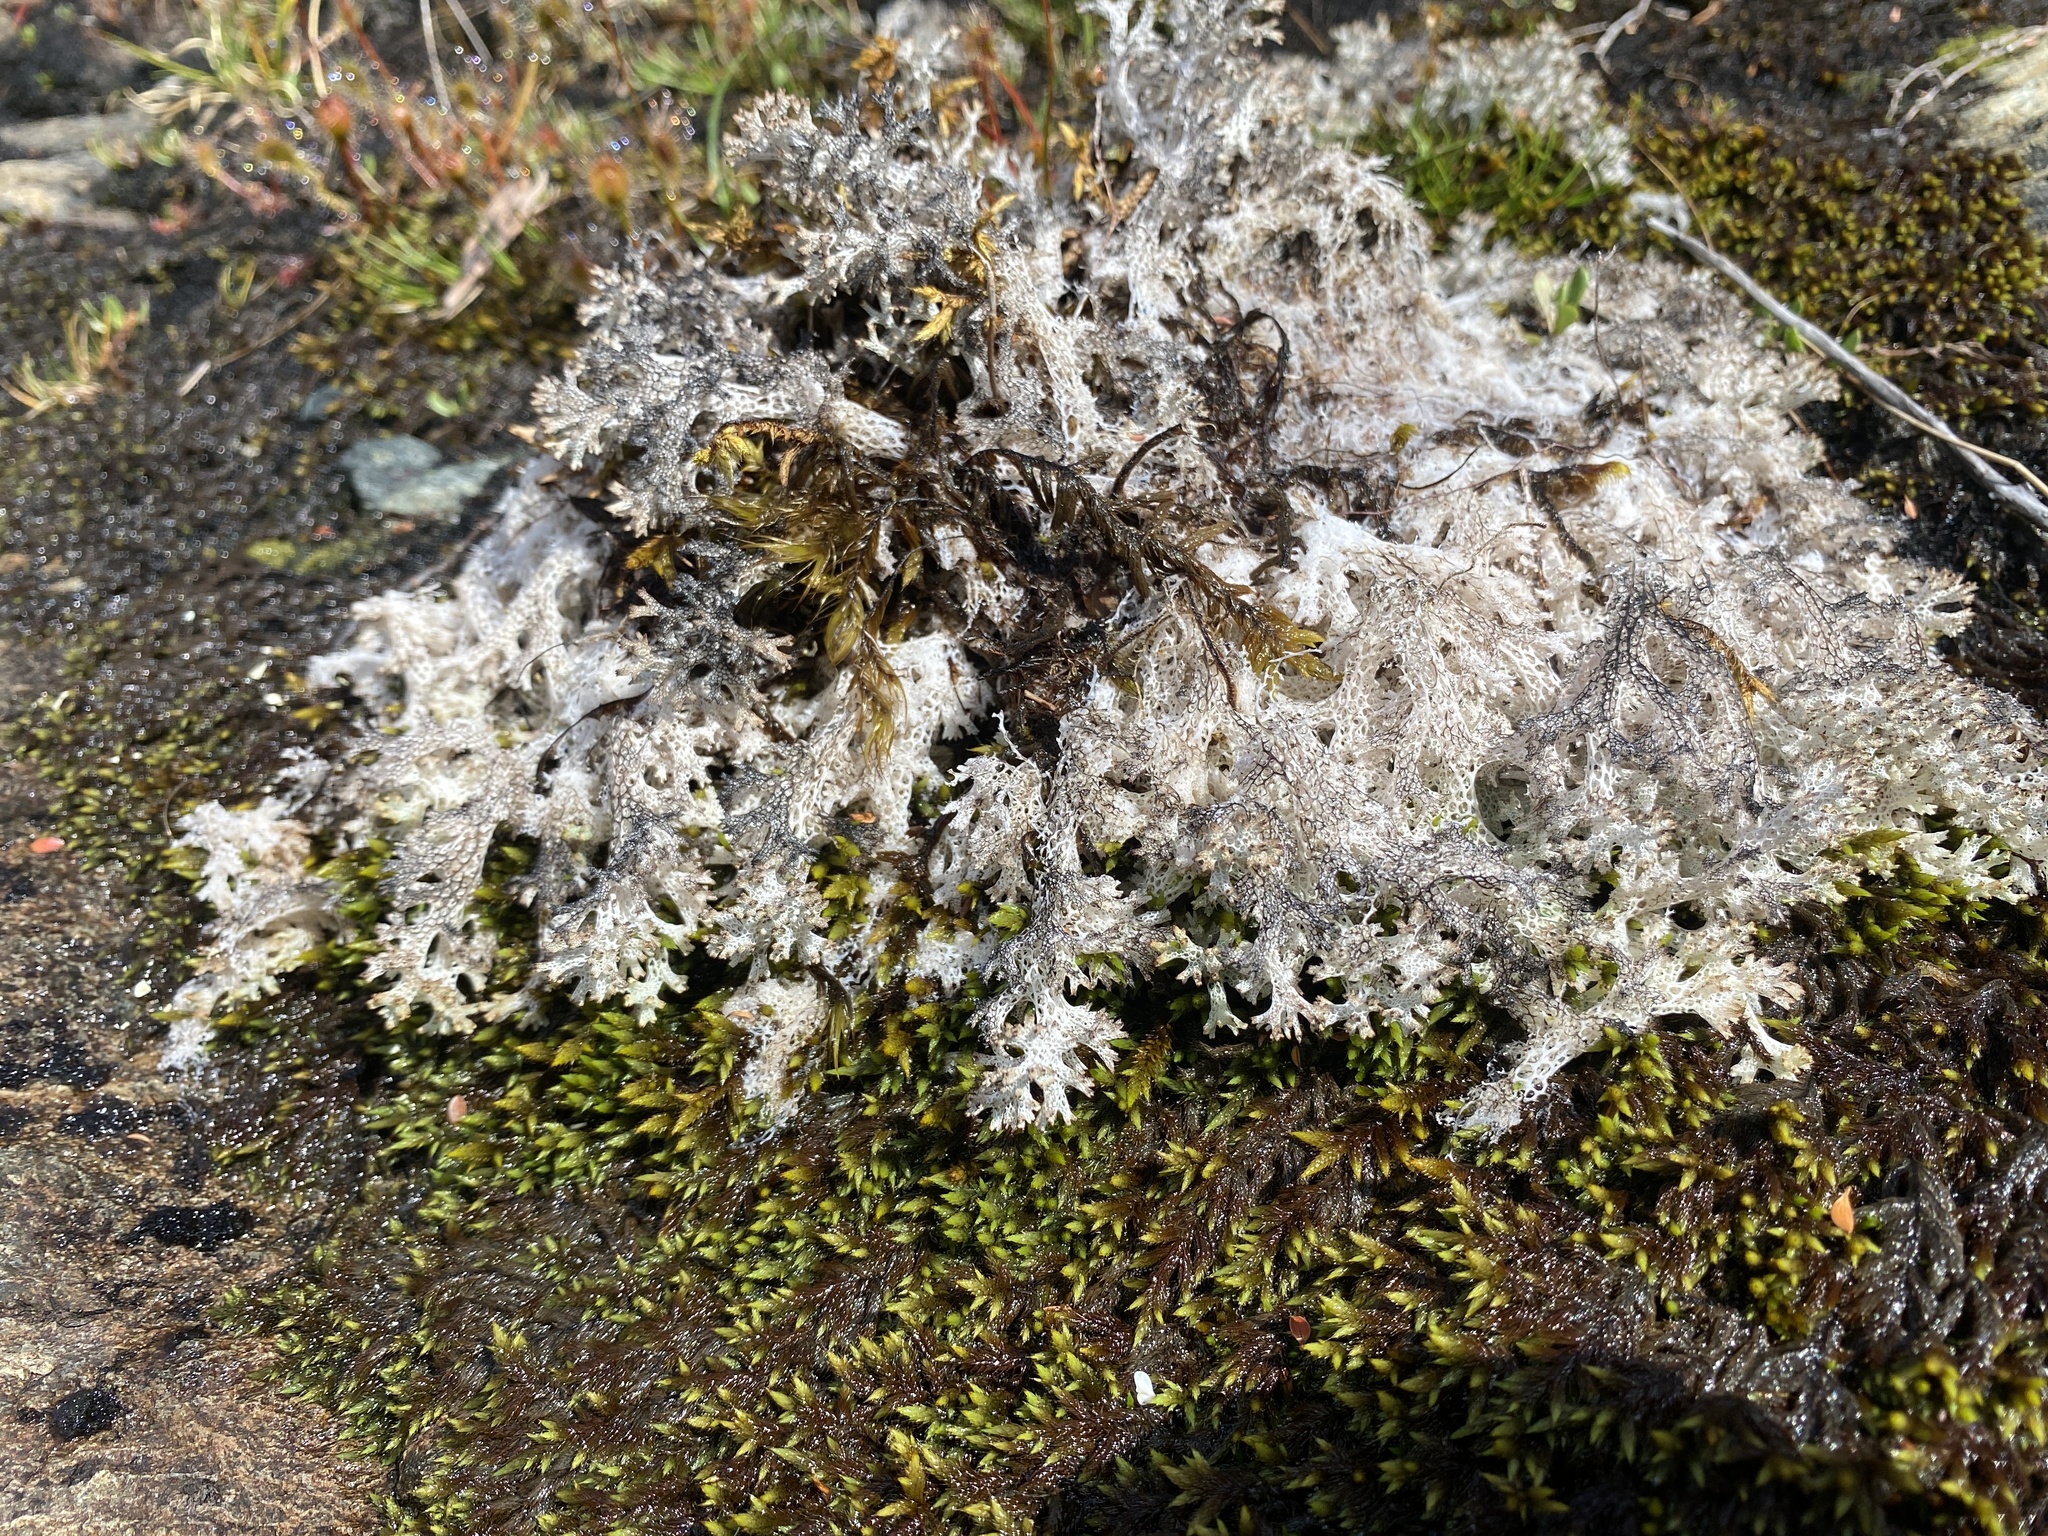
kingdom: Fungi
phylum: Ascomycota
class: Lecanoromycetes
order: Lecanorales
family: Cladoniaceae
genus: Pulchrocladia
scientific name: Pulchrocladia retipora
